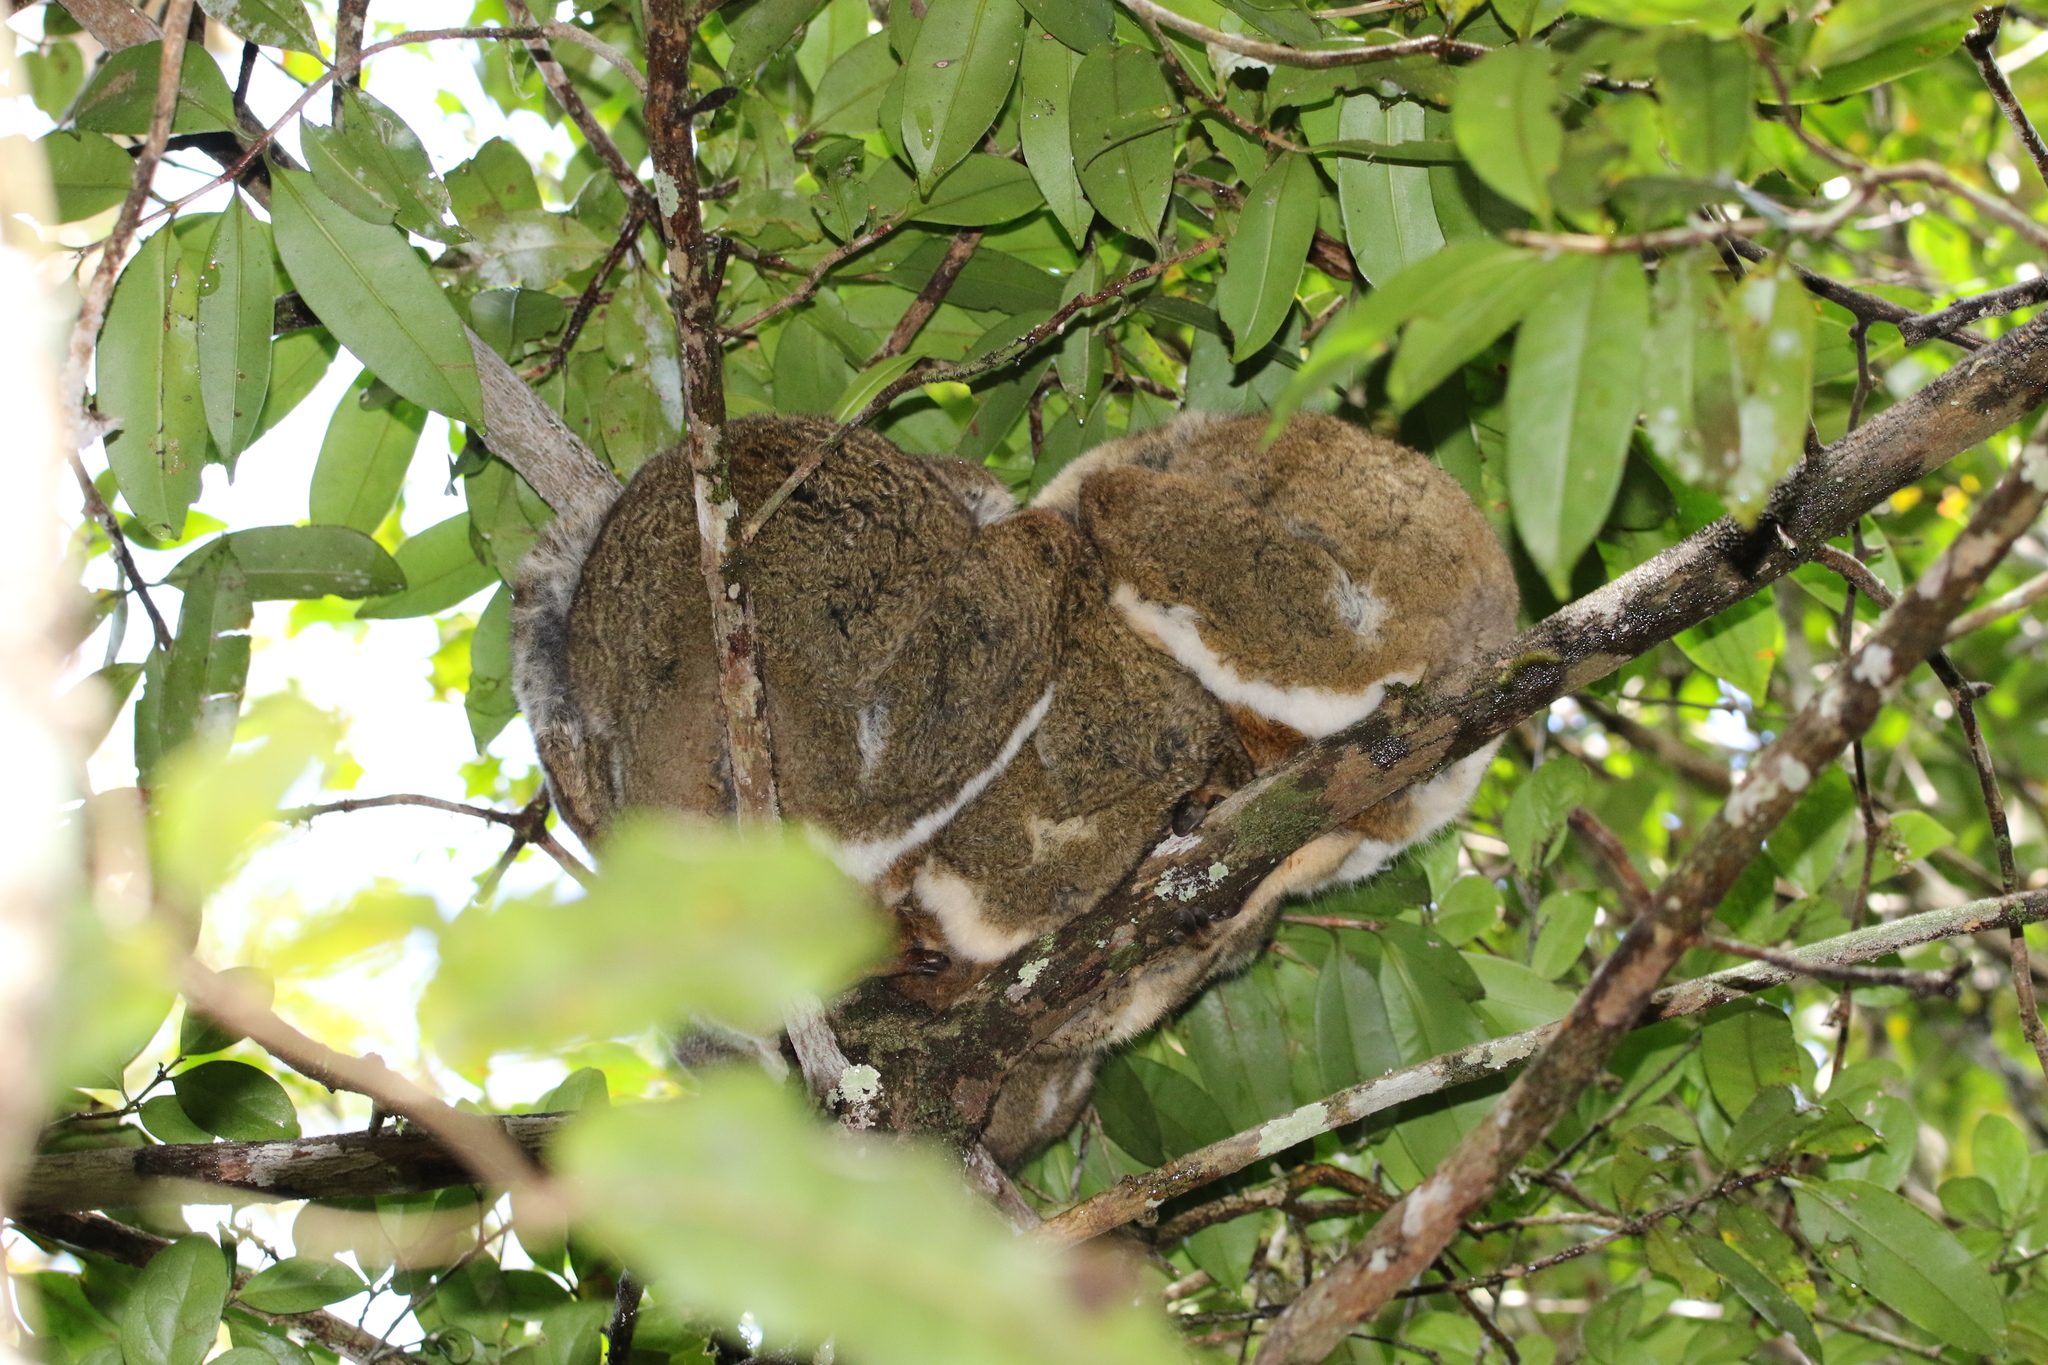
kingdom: Animalia
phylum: Chordata
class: Mammalia
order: Primates
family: Indriidae
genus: Avahi
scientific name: Avahi laniger
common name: Eastern woolly lemur
